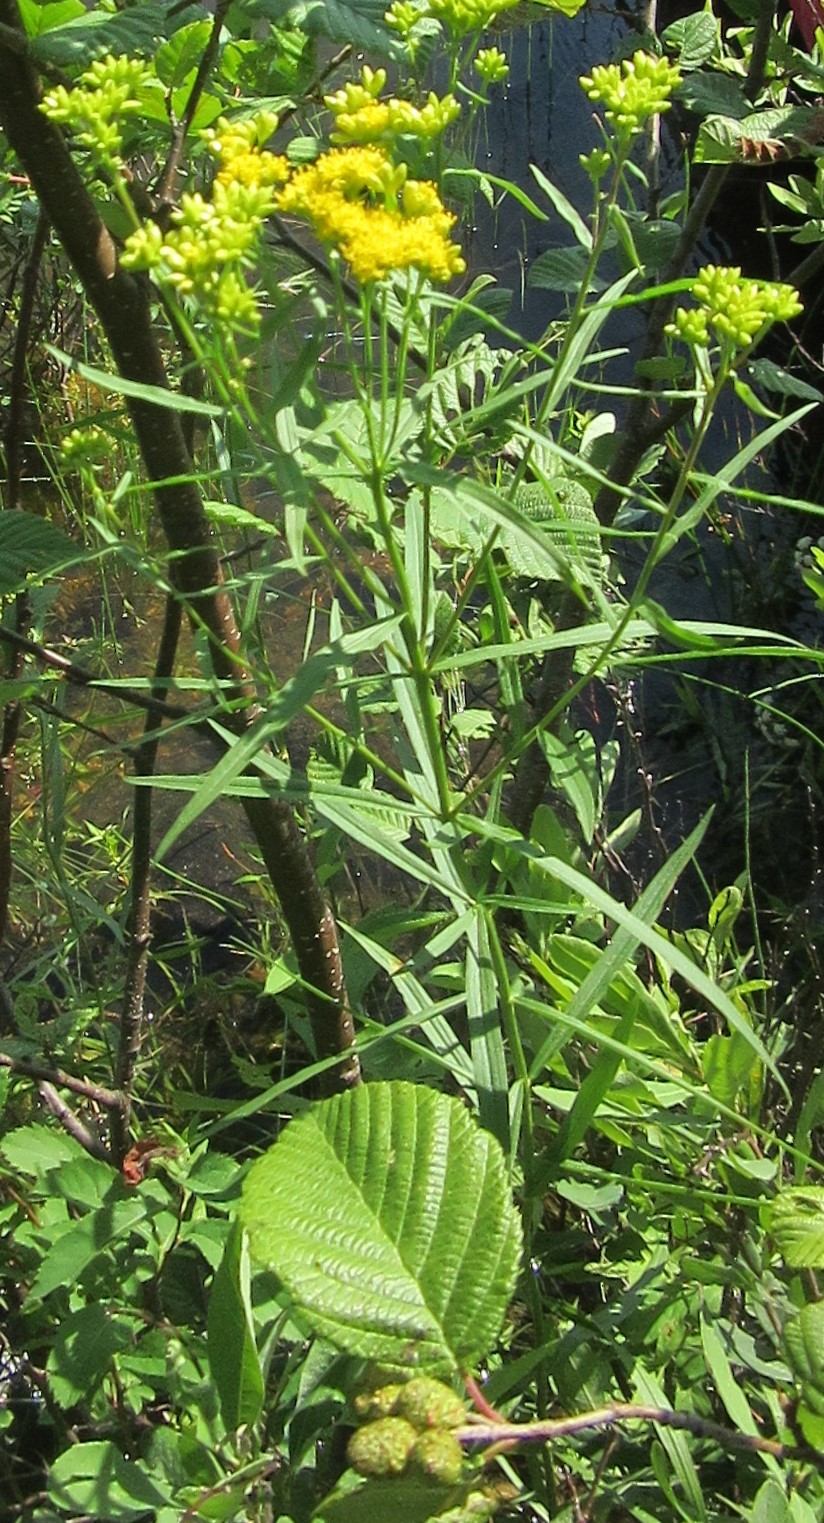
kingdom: Plantae
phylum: Tracheophyta
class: Magnoliopsida
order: Asterales
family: Asteraceae
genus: Euthamia
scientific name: Euthamia graminifolia
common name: Common goldentop
